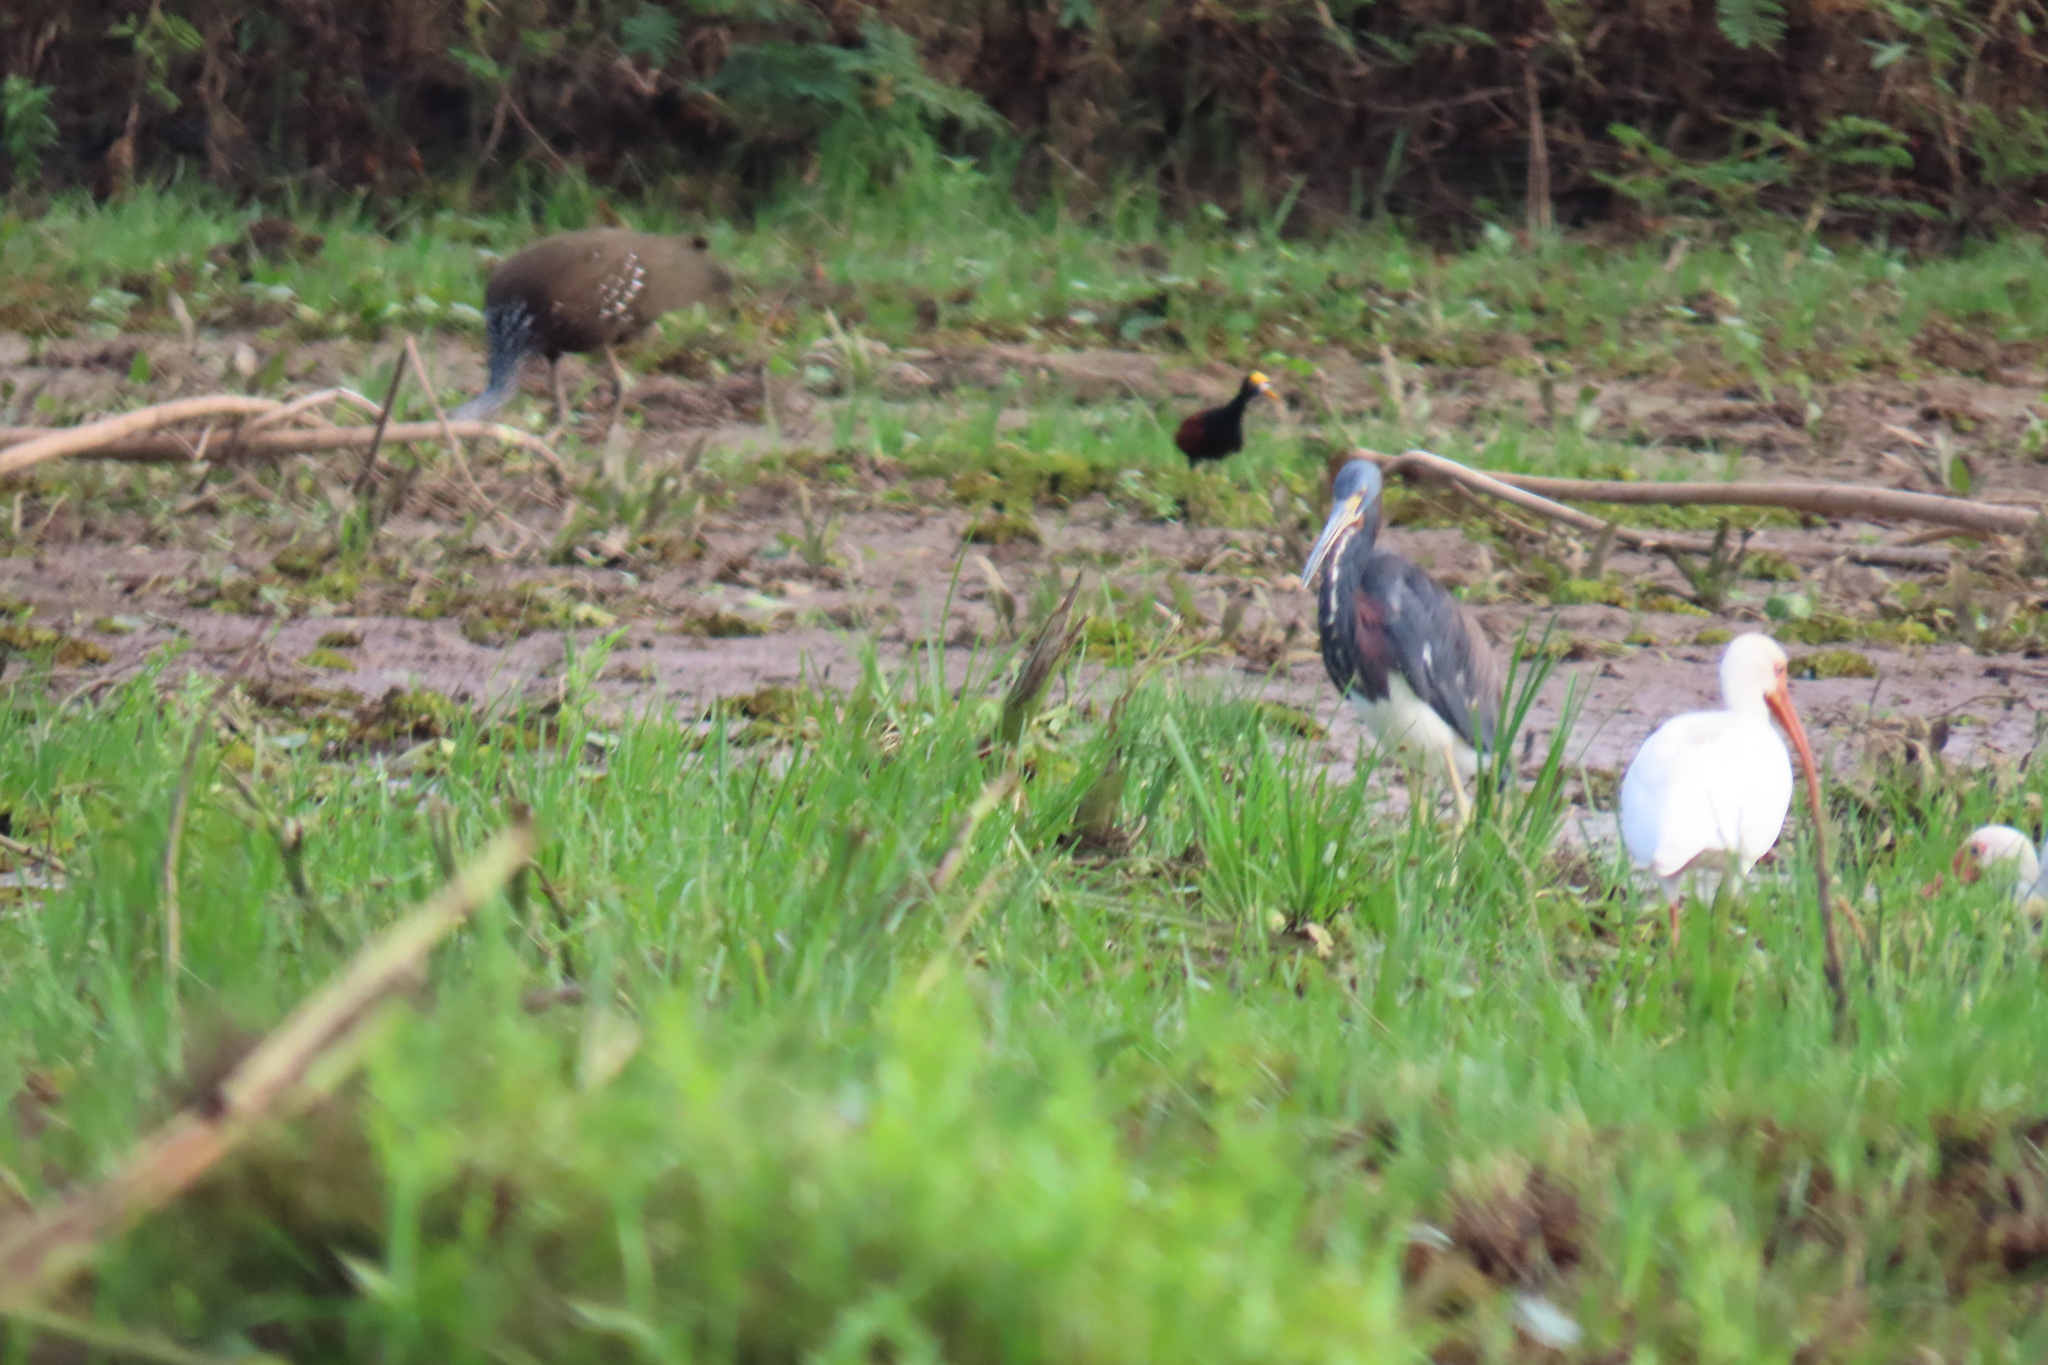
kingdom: Animalia
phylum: Chordata
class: Aves
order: Gruiformes
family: Aramidae
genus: Aramus
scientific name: Aramus guarauna
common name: Limpkin
